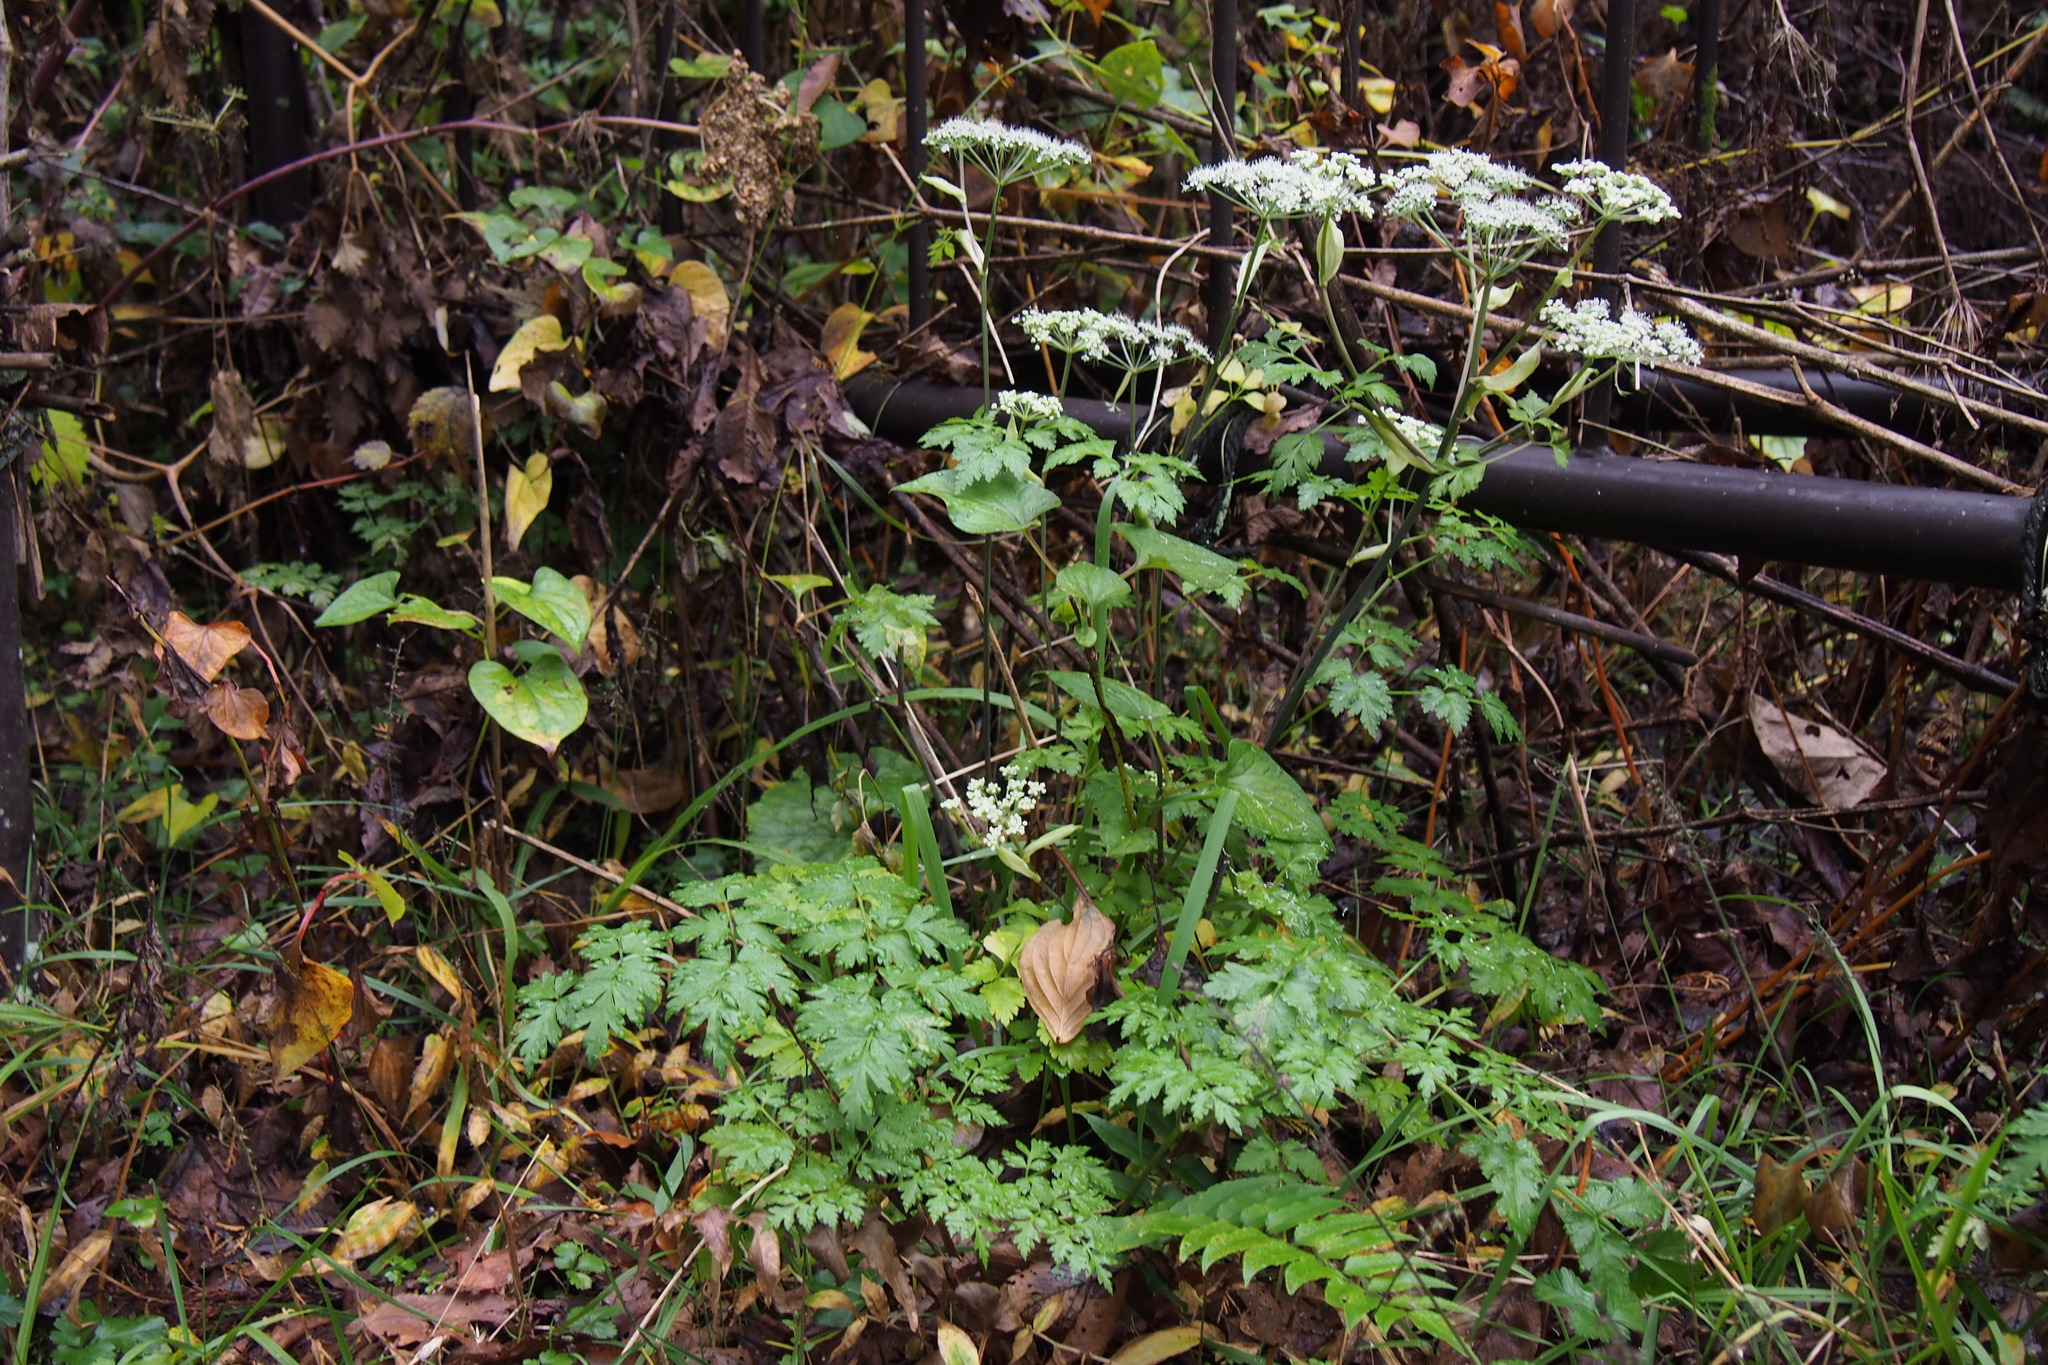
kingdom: Plantae
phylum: Tracheophyta
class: Magnoliopsida
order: Apiales
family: Apiaceae
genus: Angelica
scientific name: Angelica pubescens
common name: Pubescent angelica
